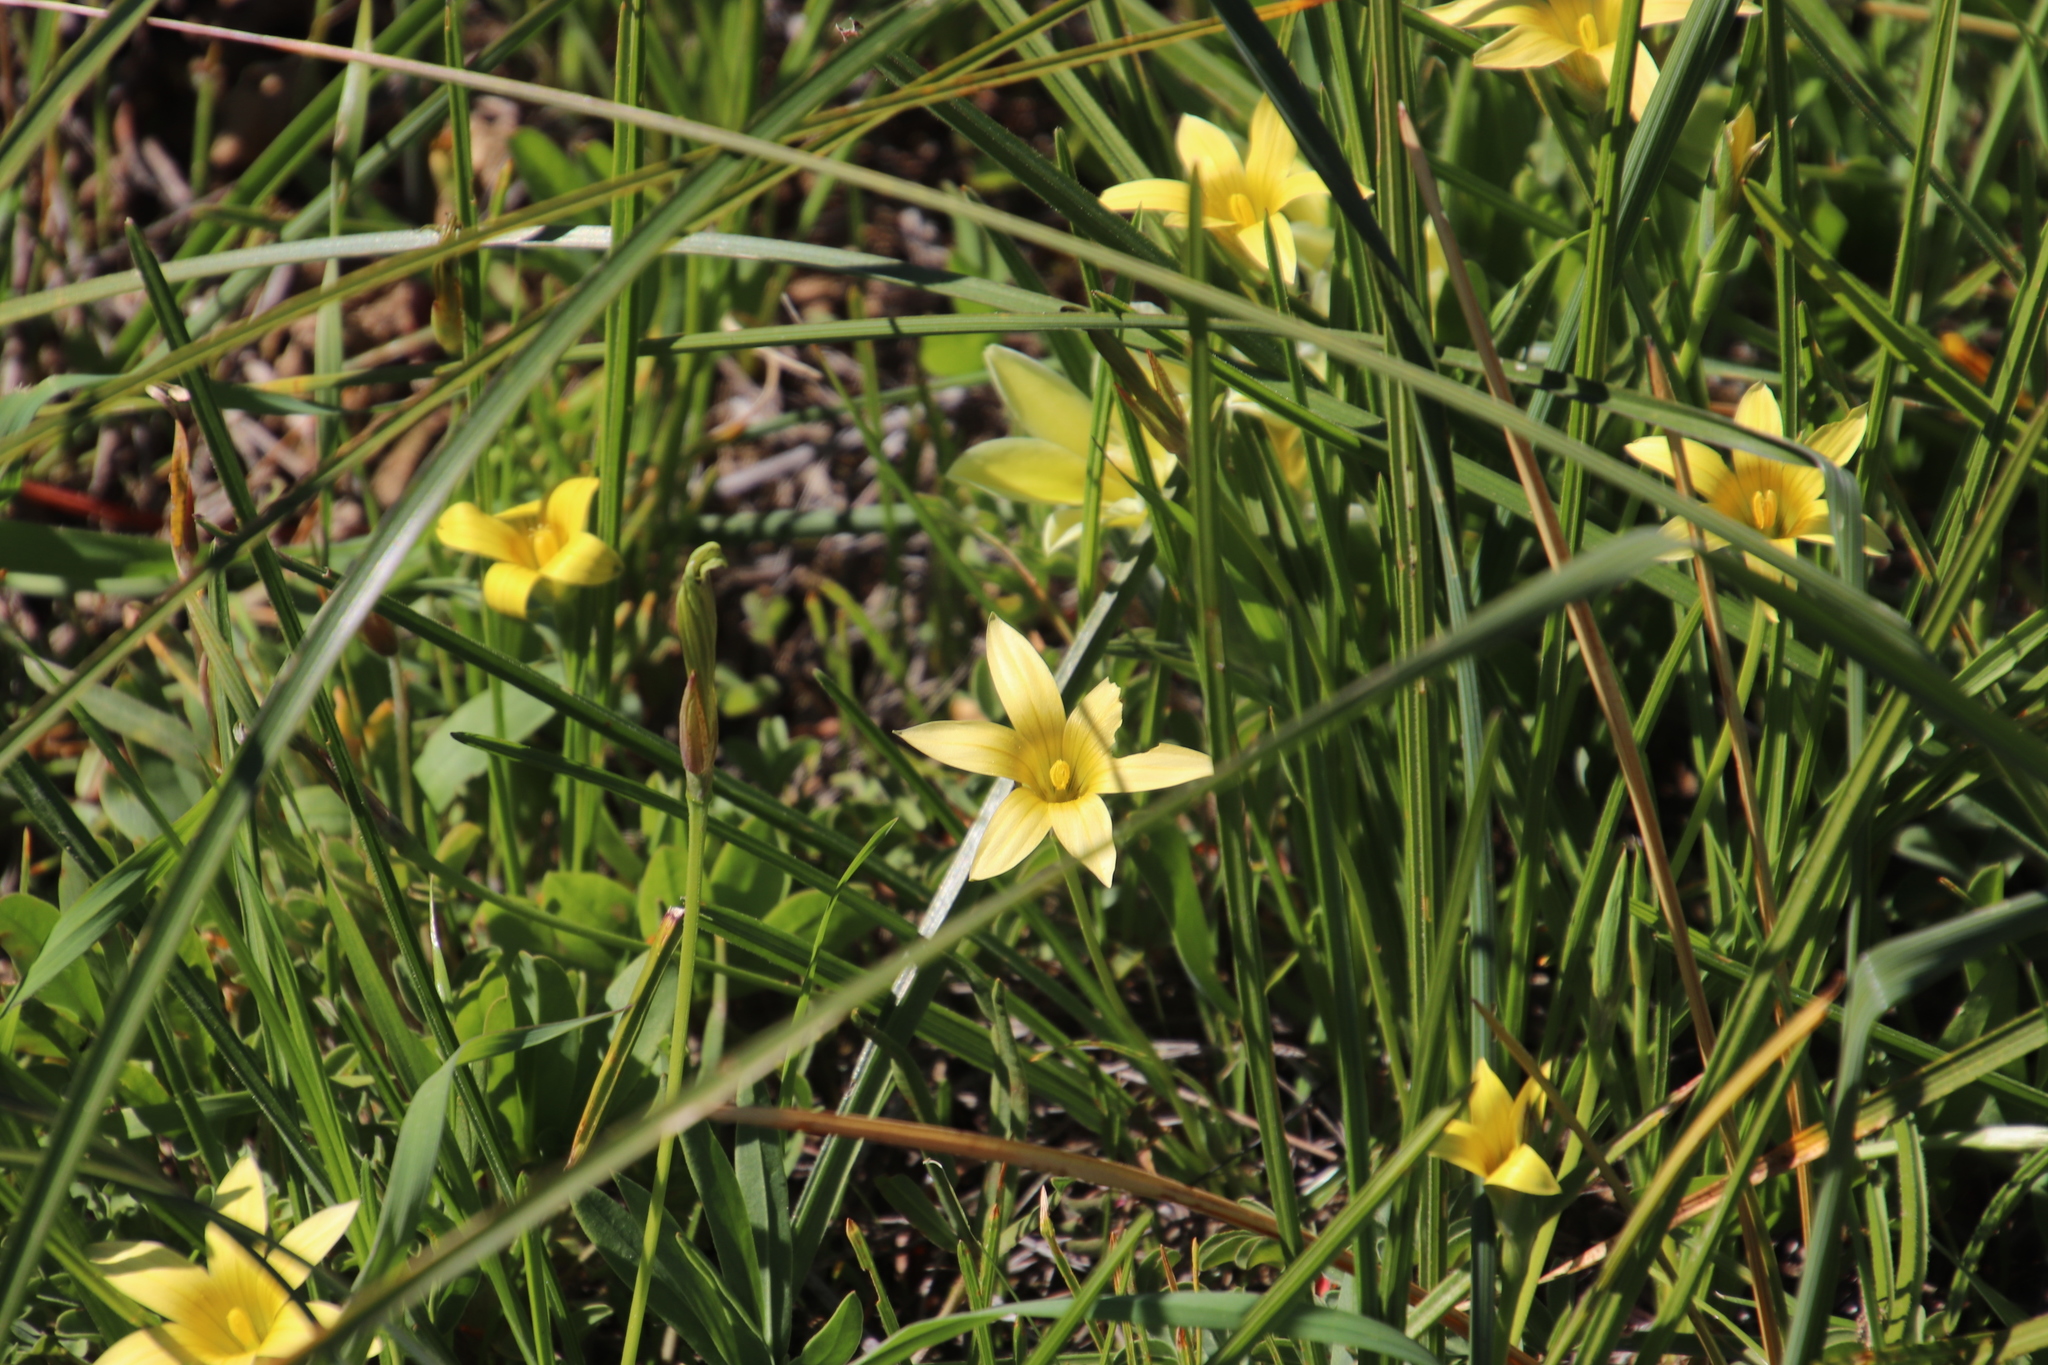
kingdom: Plantae
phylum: Tracheophyta
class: Liliopsida
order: Asparagales
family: Iridaceae
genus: Romulea
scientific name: Romulea hirta
